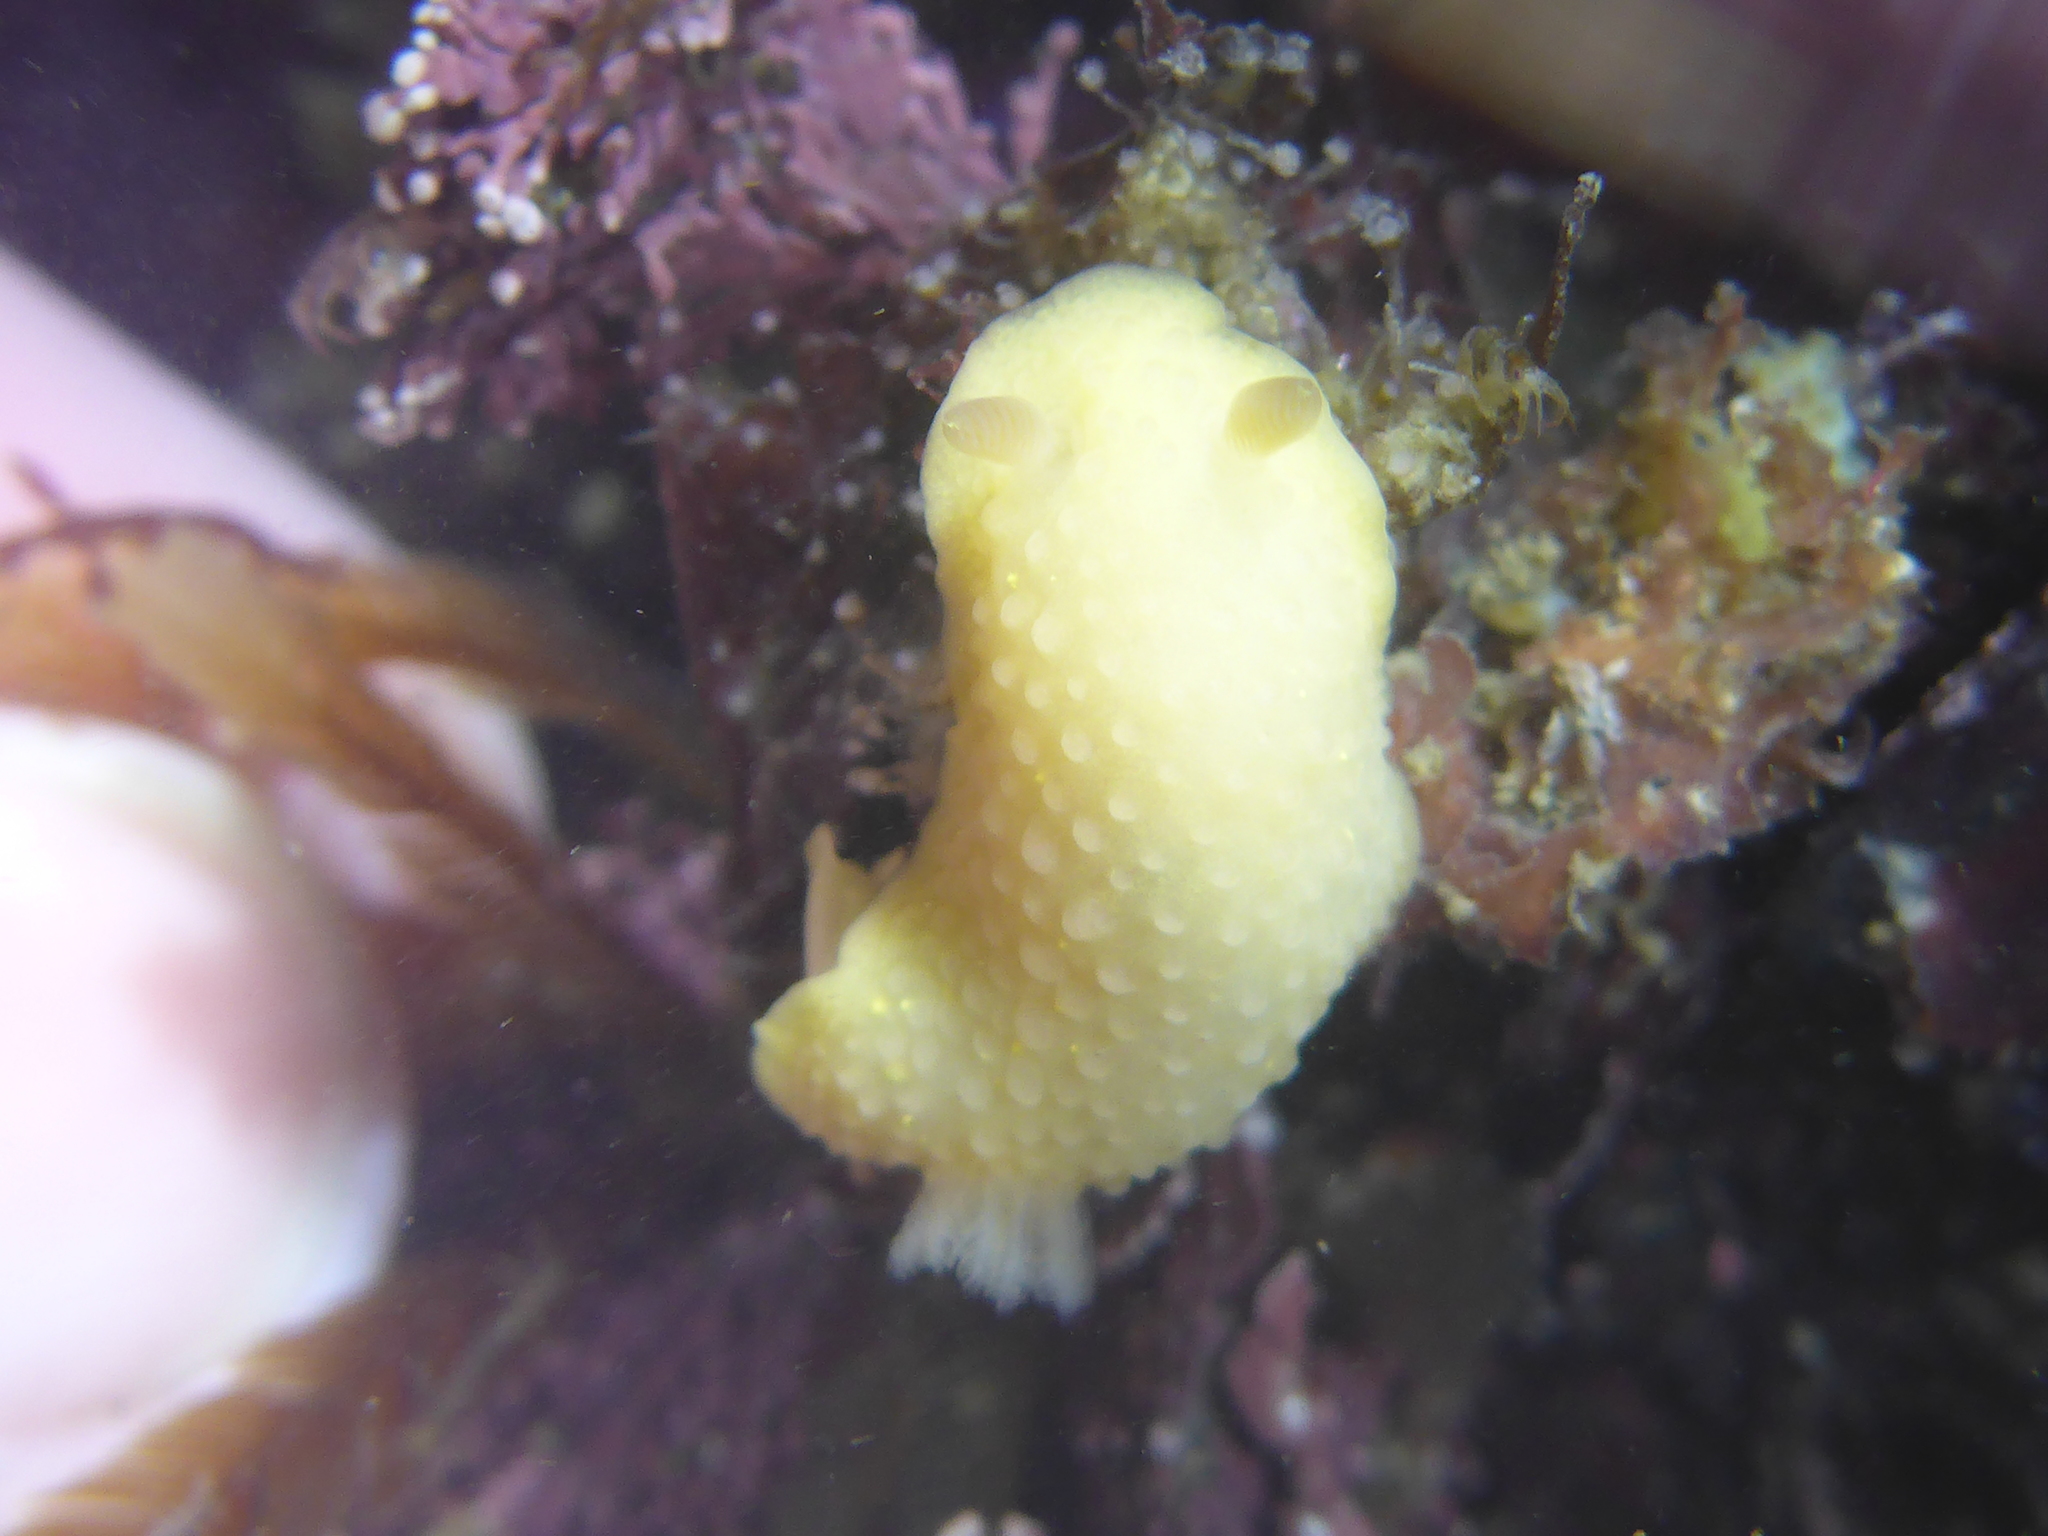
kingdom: Animalia
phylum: Mollusca
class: Gastropoda
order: Nudibranchia
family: Cadlinidae
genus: Cadlina
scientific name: Cadlina modesta
